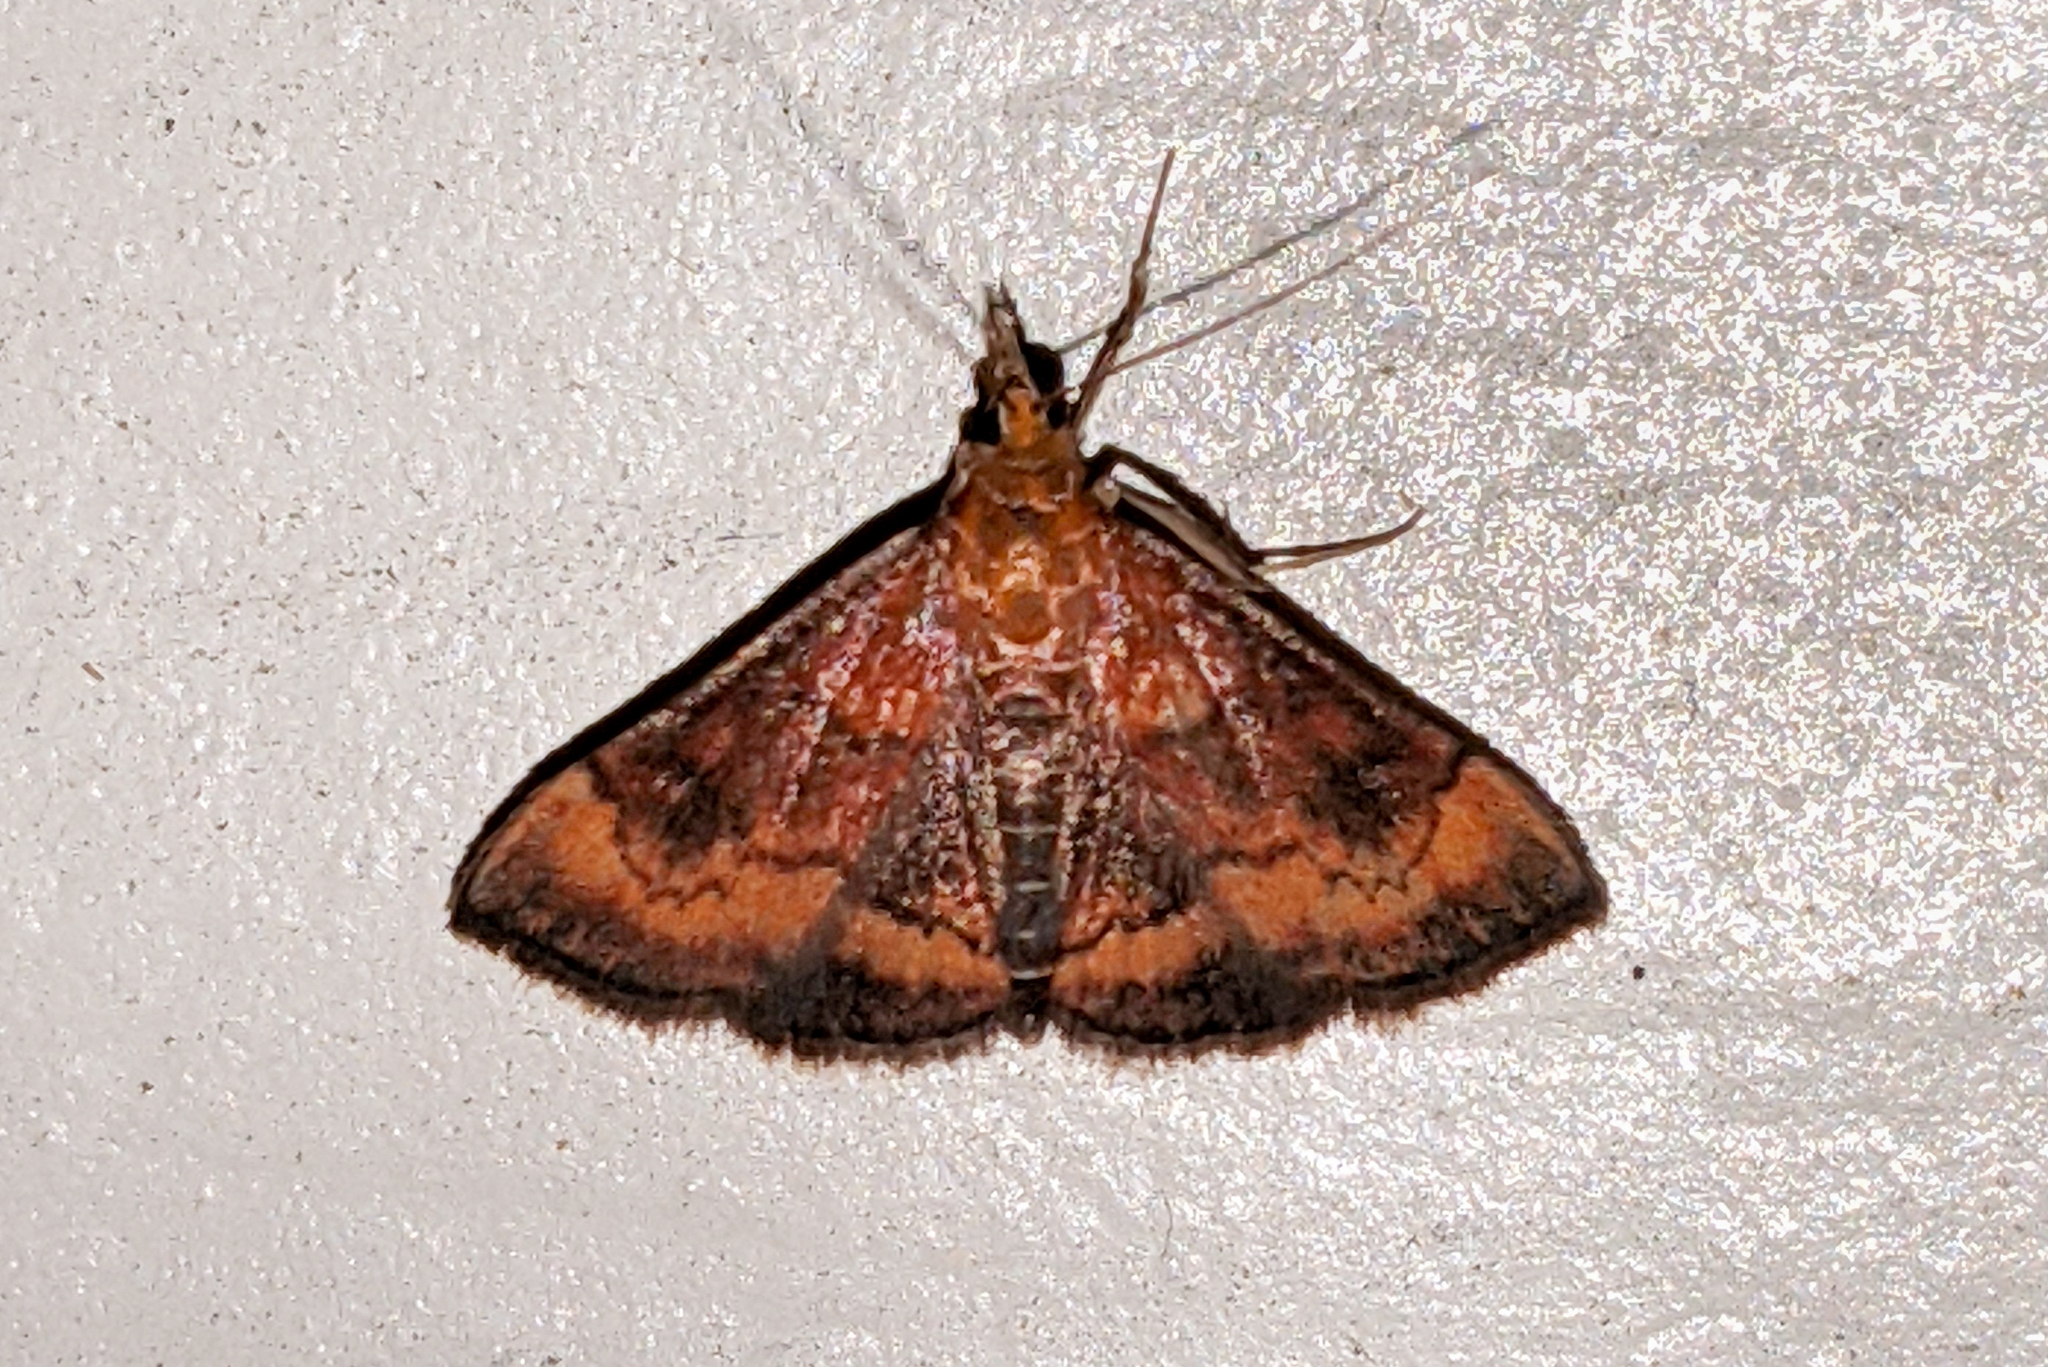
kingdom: Animalia
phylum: Arthropoda
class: Insecta
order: Lepidoptera
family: Crambidae
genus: Pyrausta
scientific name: Pyrausta rubricalis
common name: Variable reddish pyrausta
